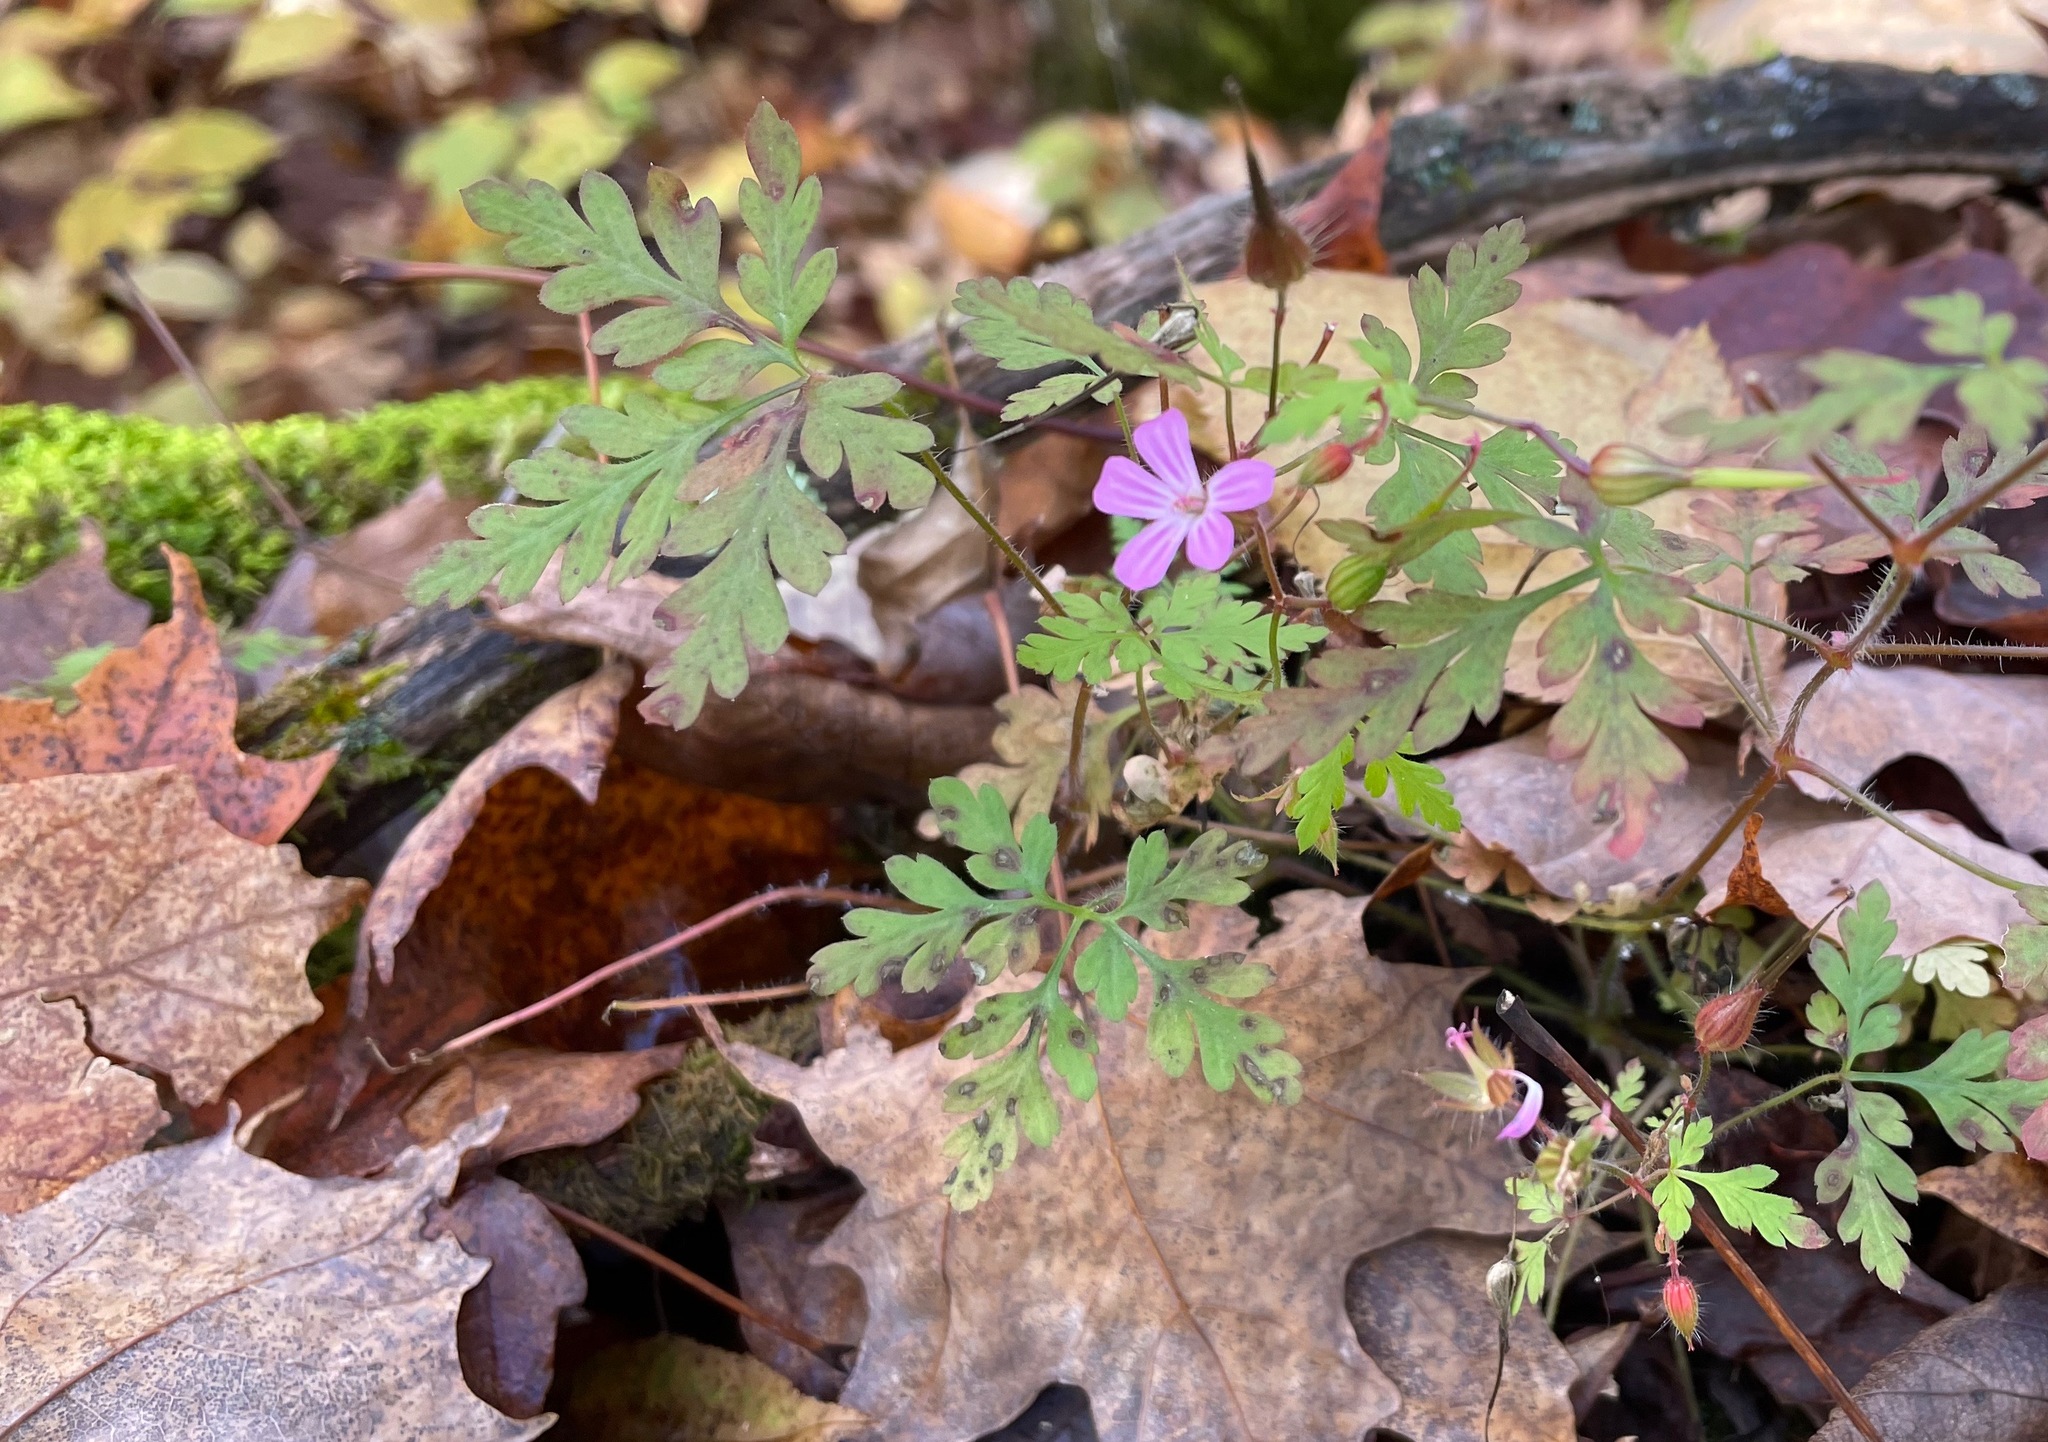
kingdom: Plantae
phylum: Tracheophyta
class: Magnoliopsida
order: Geraniales
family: Geraniaceae
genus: Geranium
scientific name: Geranium robertianum
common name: Herb-robert
